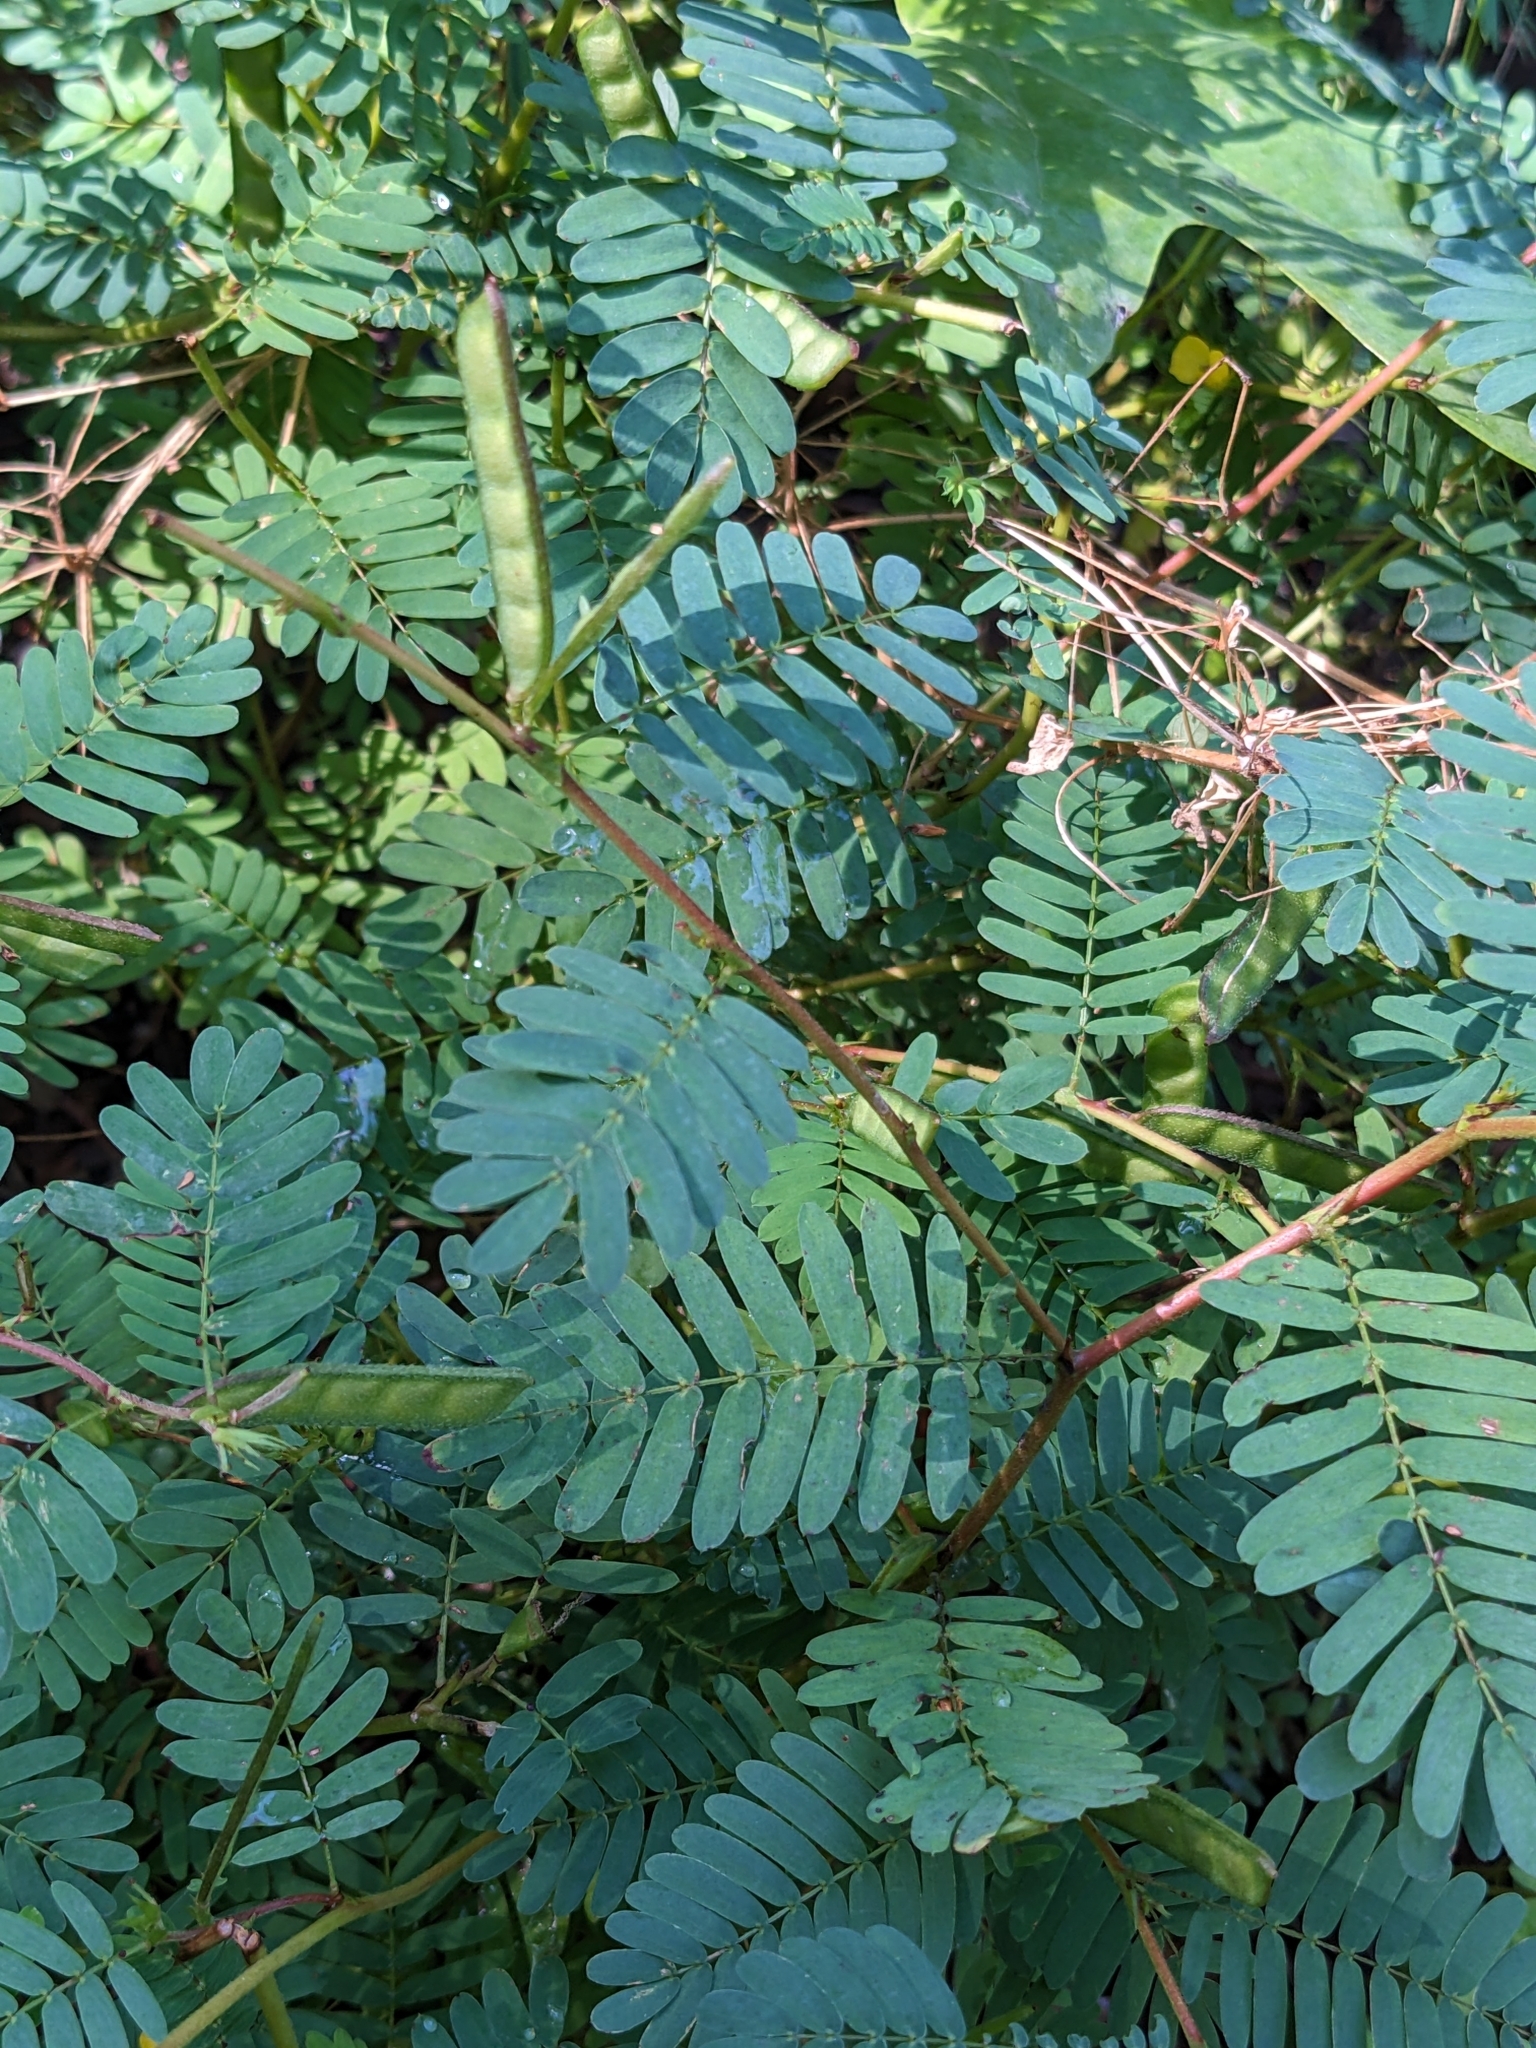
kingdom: Plantae
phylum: Tracheophyta
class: Magnoliopsida
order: Fabales
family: Fabaceae
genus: Chamaecrista
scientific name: Chamaecrista nictitans
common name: Sensitive cassia
